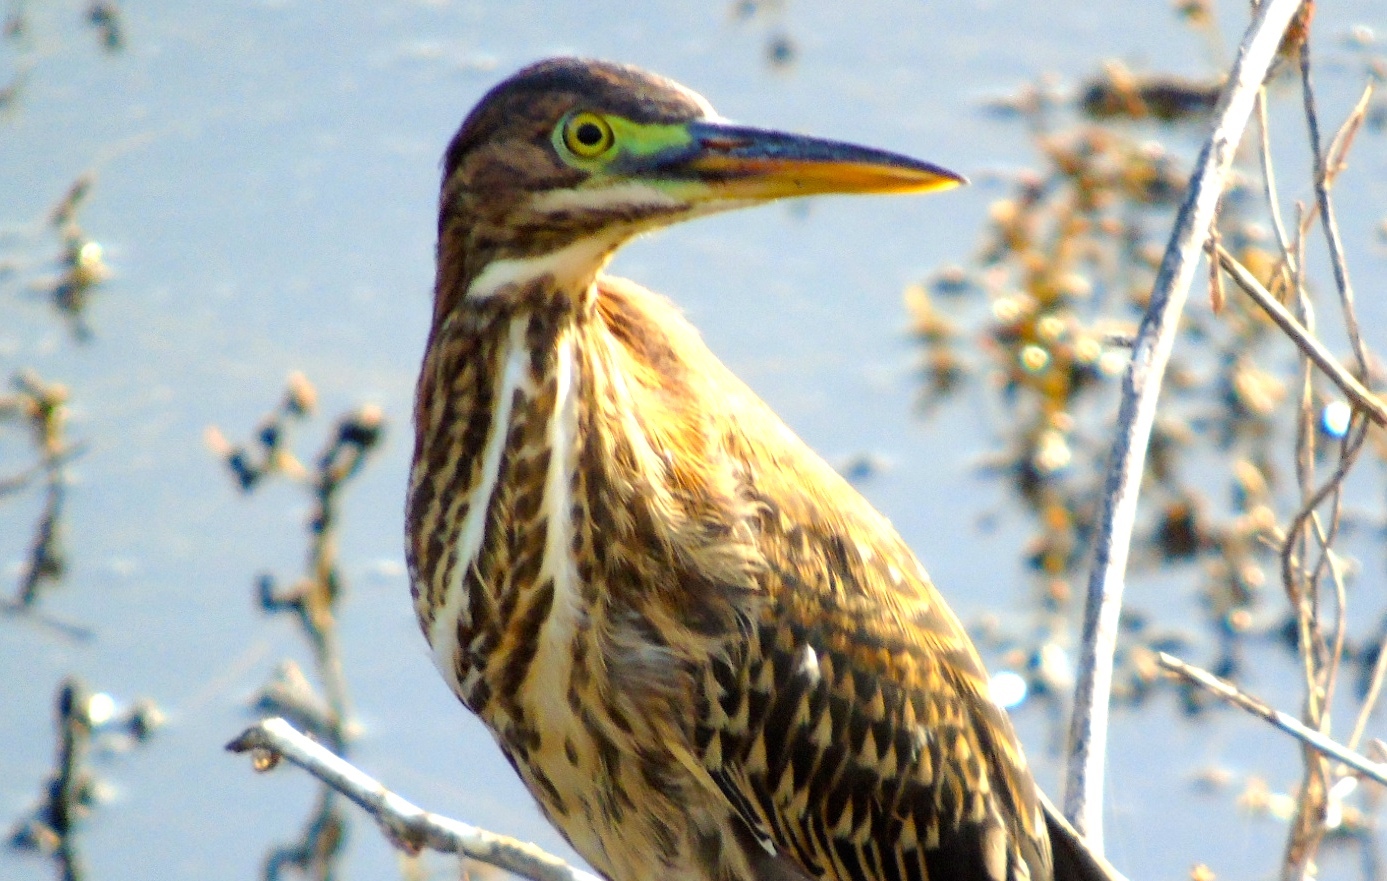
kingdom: Animalia
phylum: Chordata
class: Aves
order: Pelecaniformes
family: Ardeidae
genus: Butorides
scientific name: Butorides virescens
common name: Green heron
